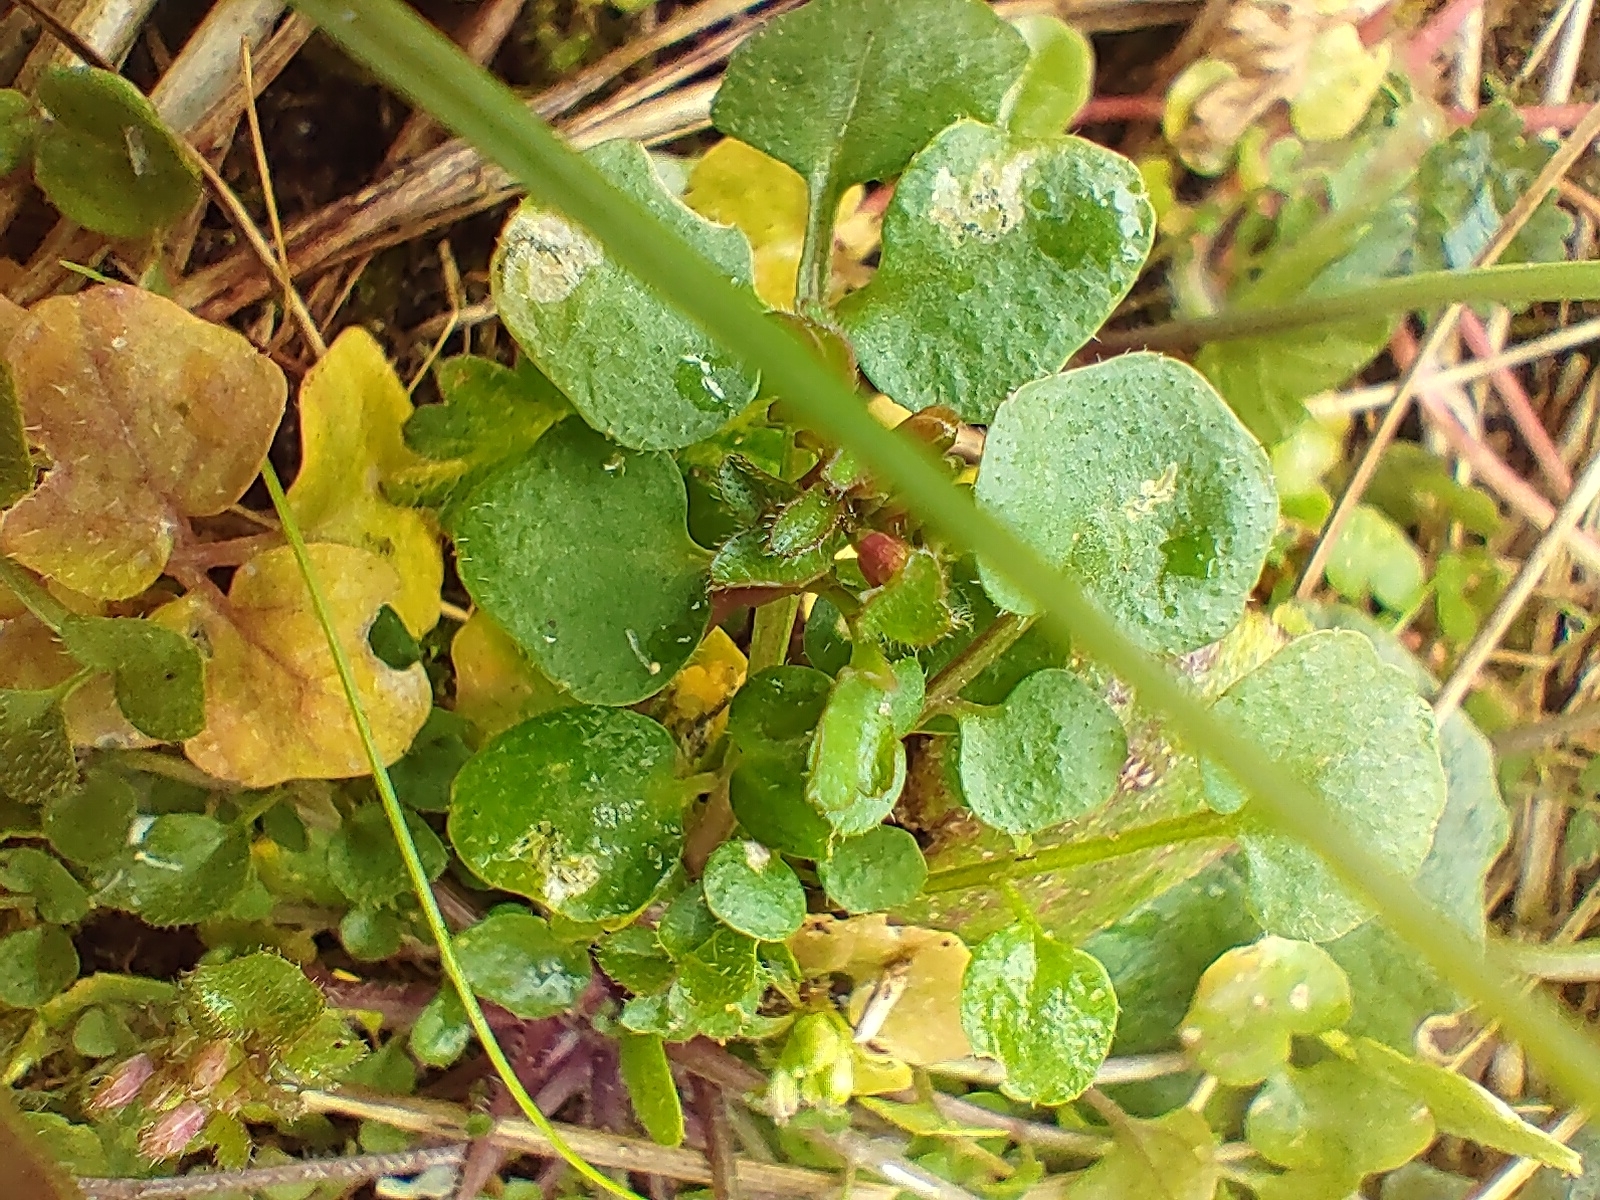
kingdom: Plantae
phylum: Tracheophyta
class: Magnoliopsida
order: Brassicales
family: Brassicaceae
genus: Cardamine
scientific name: Cardamine hirsuta
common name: Hairy bittercress
